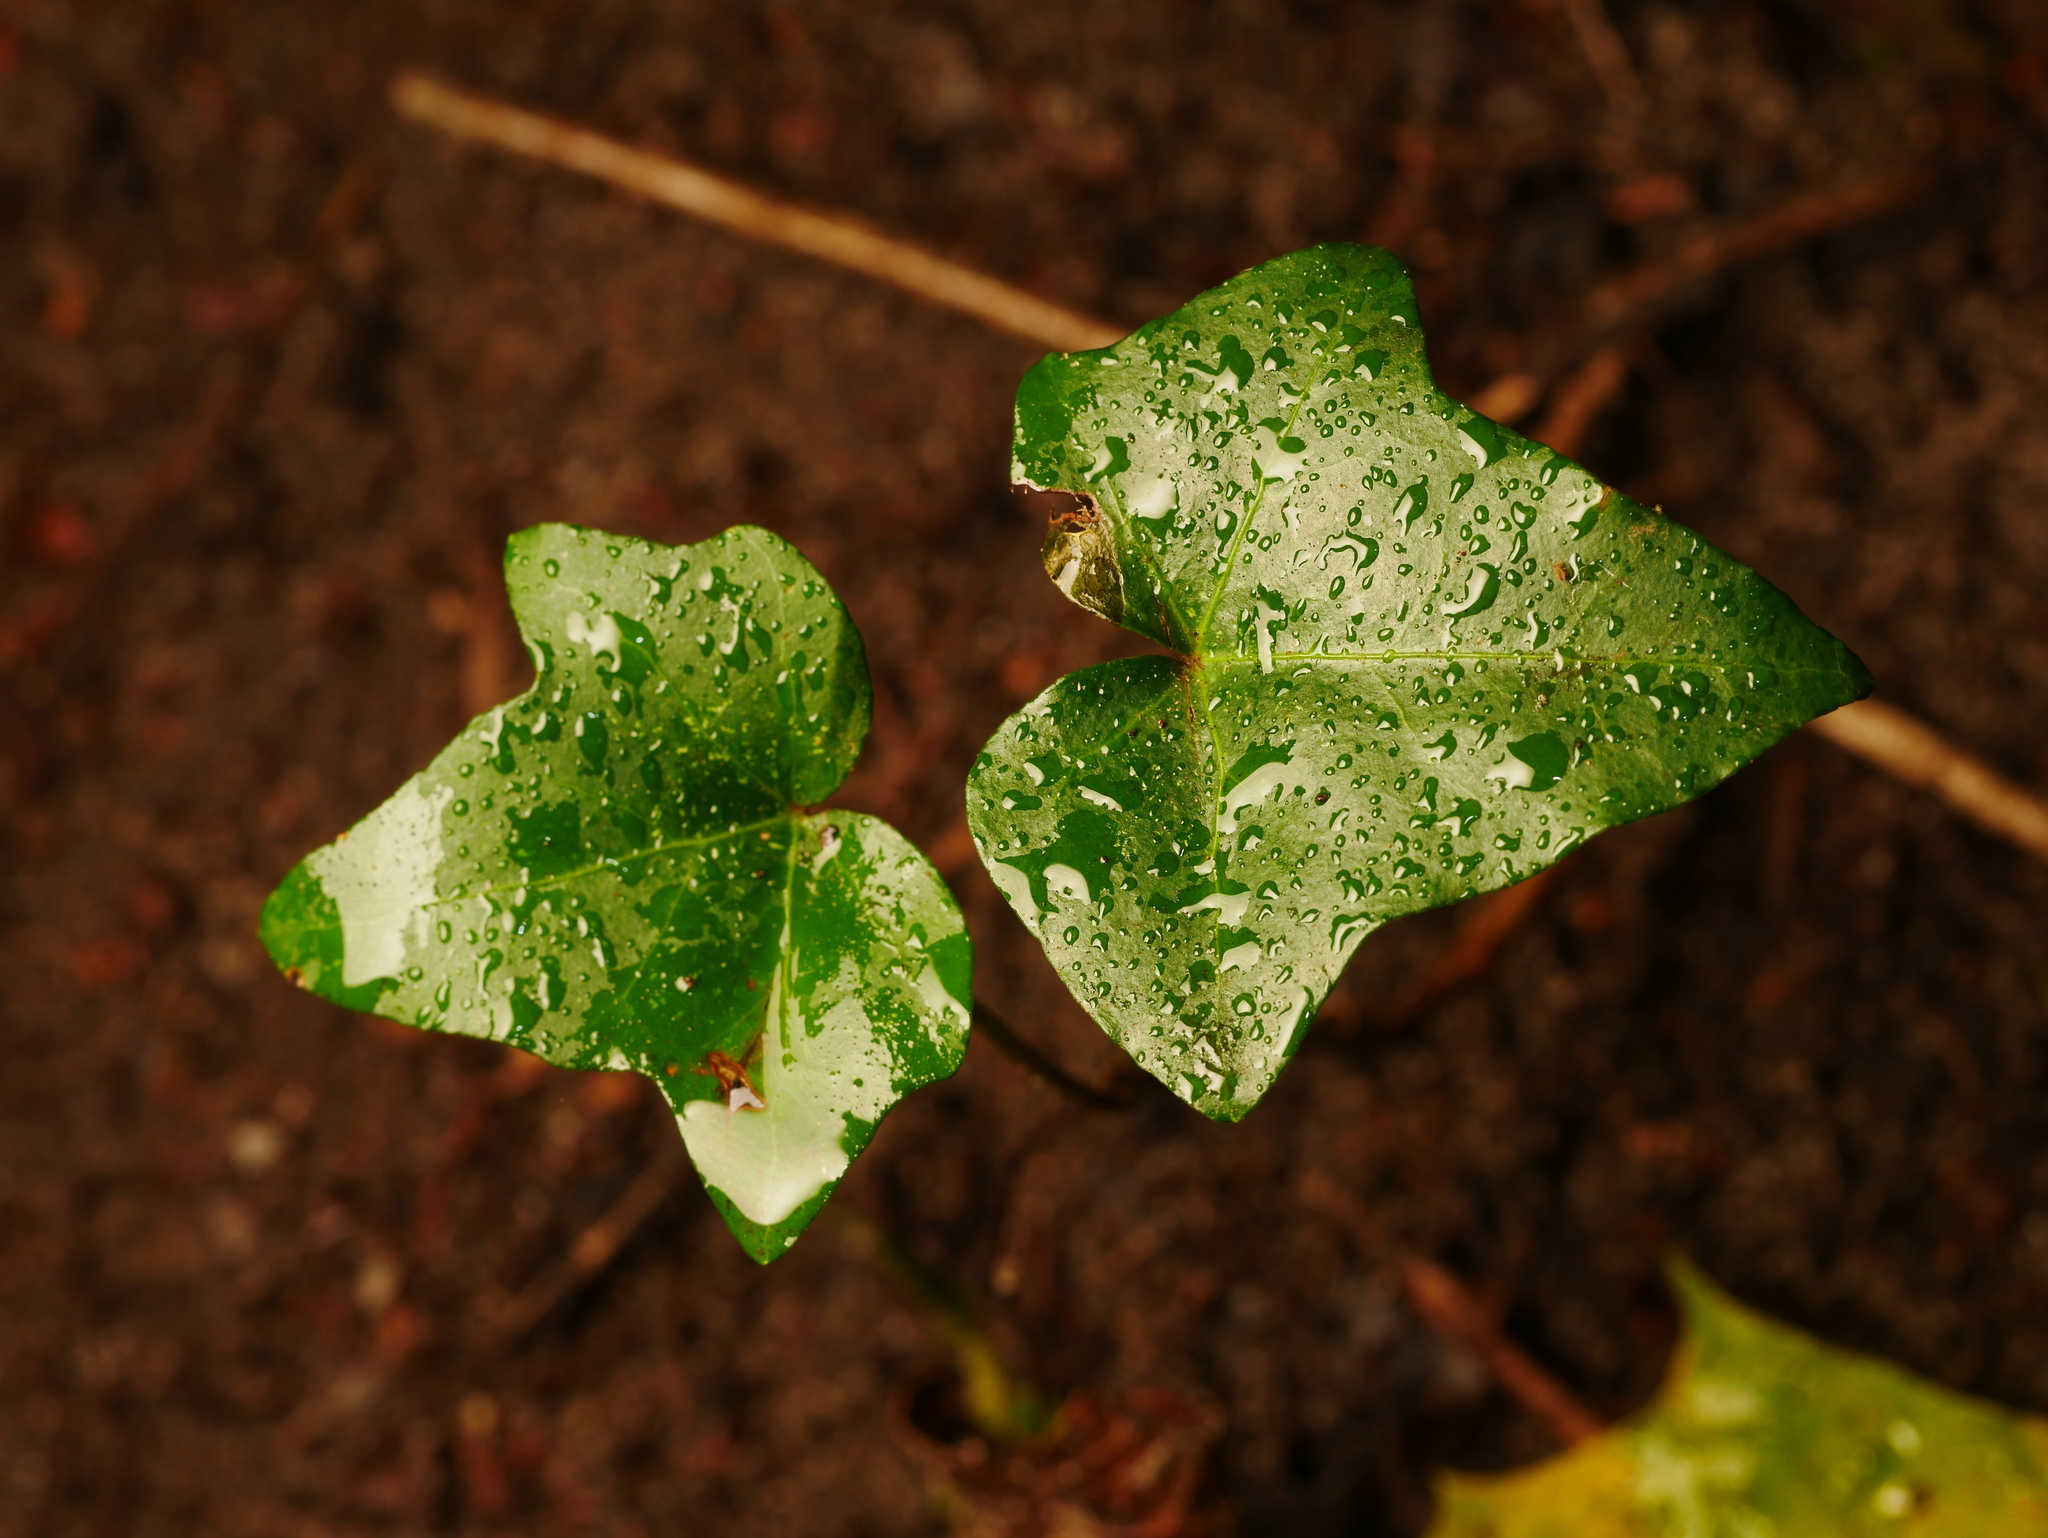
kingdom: Plantae
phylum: Tracheophyta
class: Magnoliopsida
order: Apiales
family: Araliaceae
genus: Hedera
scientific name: Hedera helix
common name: Ivy
